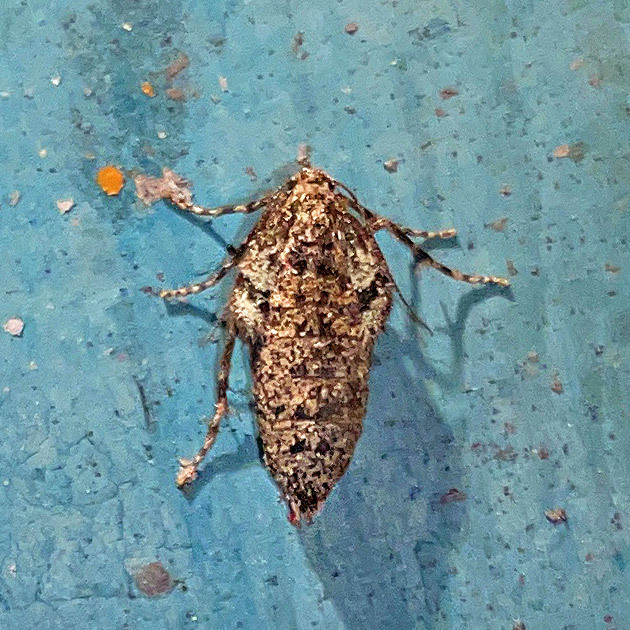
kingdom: Animalia
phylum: Arthropoda
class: Insecta
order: Lepidoptera
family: Geometridae
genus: Operophtera
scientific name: Operophtera brumata
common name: Winter moth
